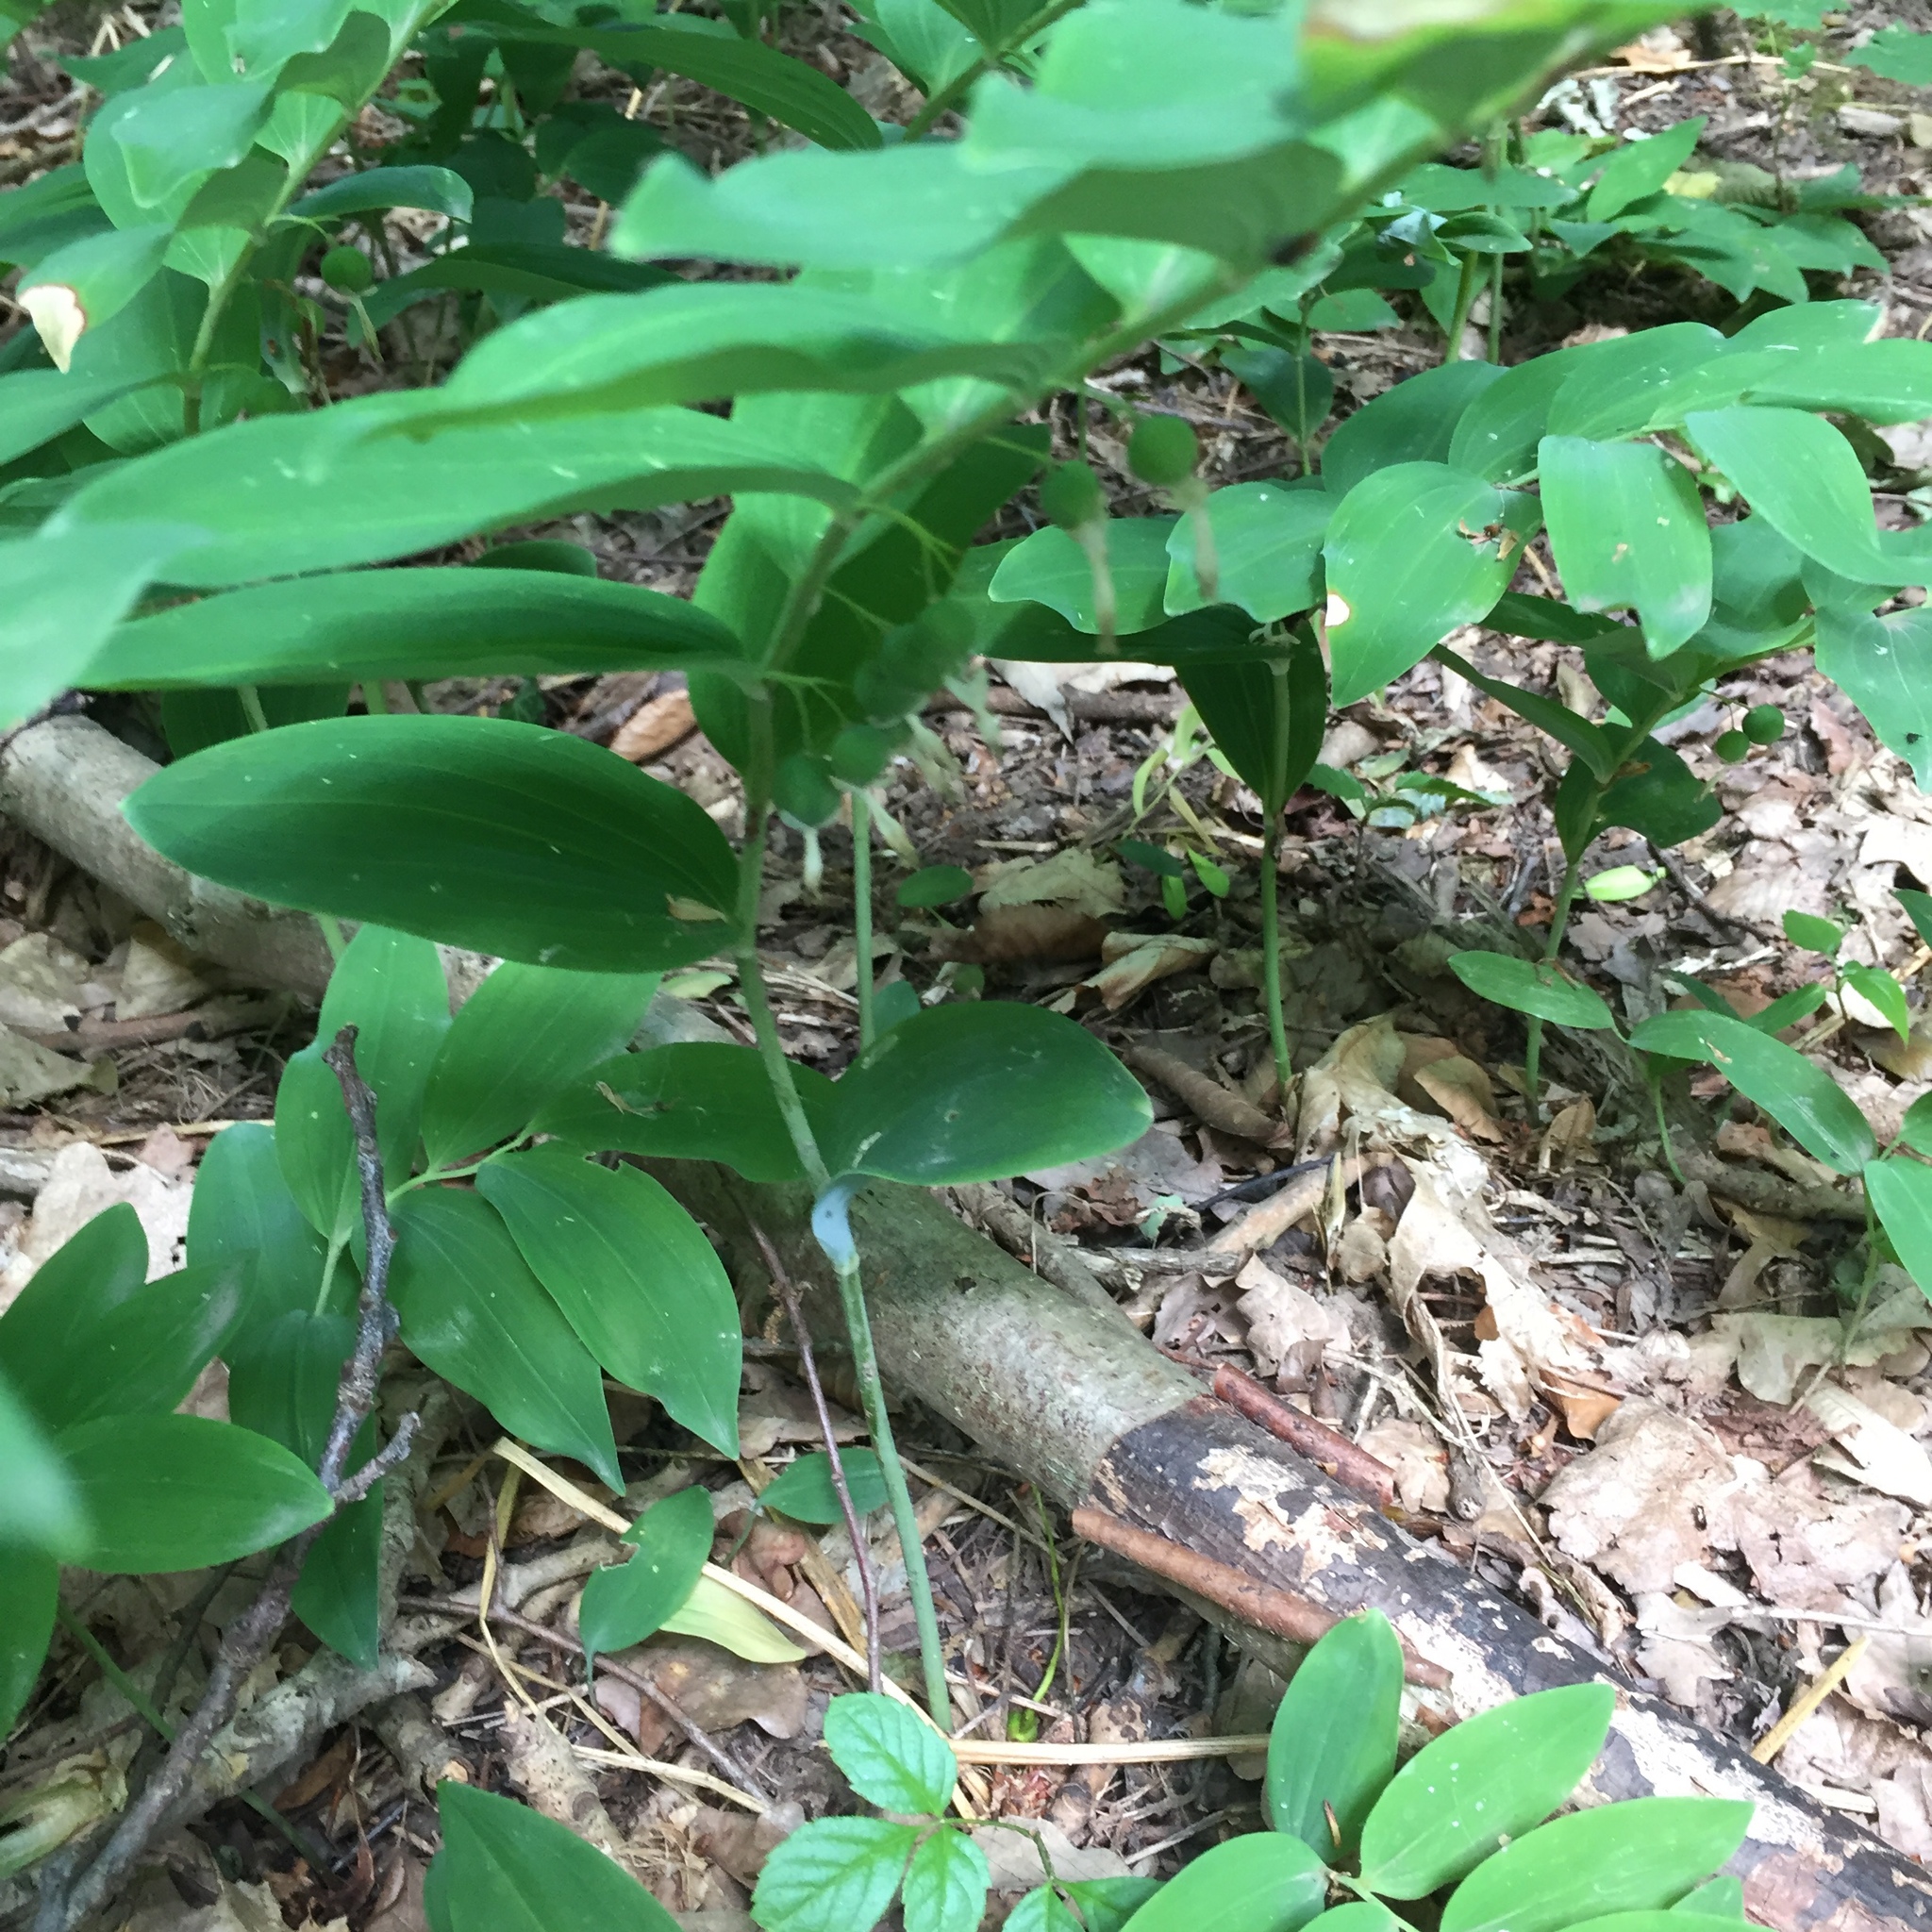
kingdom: Plantae
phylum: Tracheophyta
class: Liliopsida
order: Asparagales
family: Asparagaceae
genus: Polygonatum
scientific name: Polygonatum multiflorum
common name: Solomon's-seal
